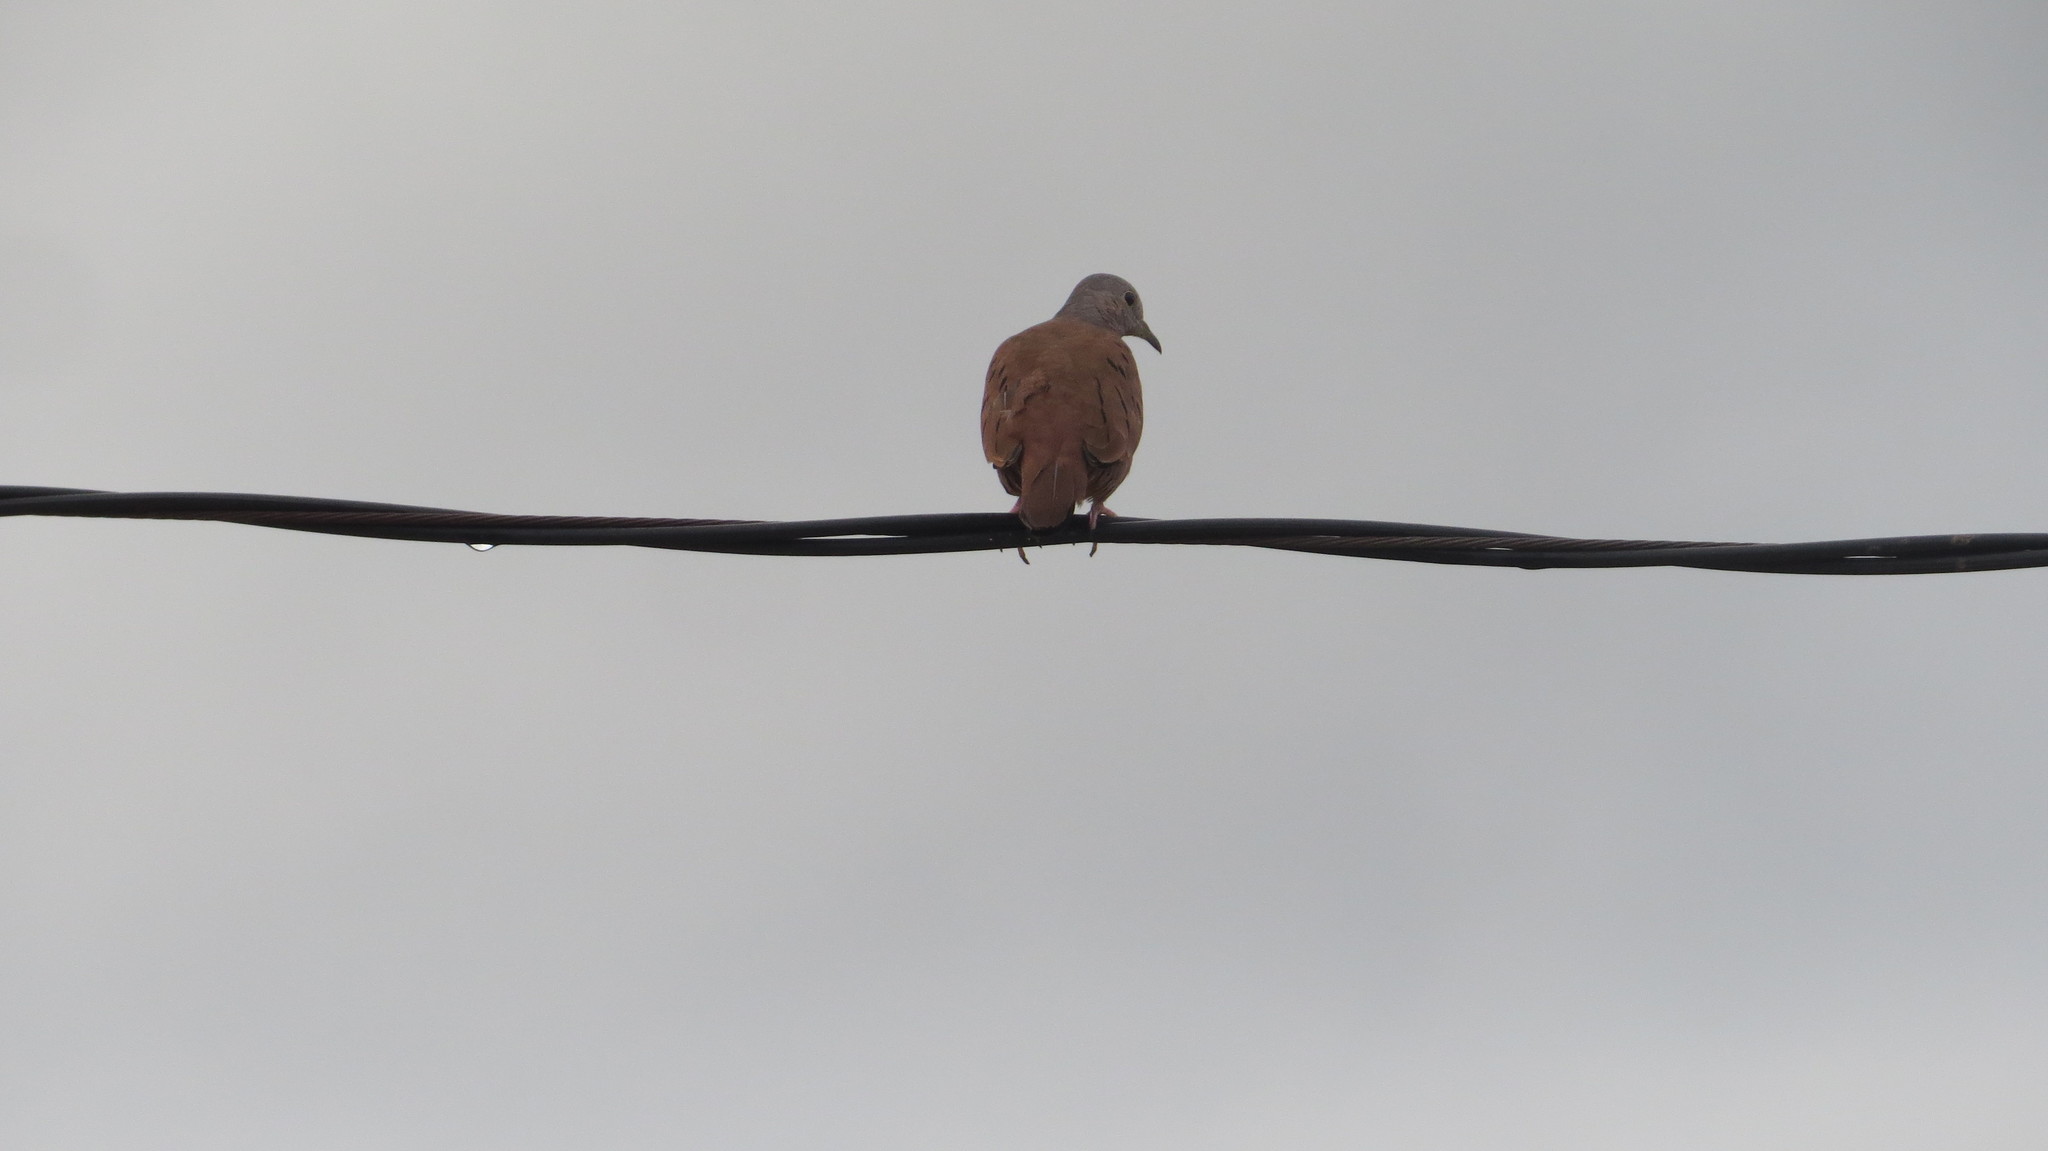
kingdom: Animalia
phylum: Chordata
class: Aves
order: Columbiformes
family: Columbidae
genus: Columbina
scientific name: Columbina talpacoti
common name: Ruddy ground dove
